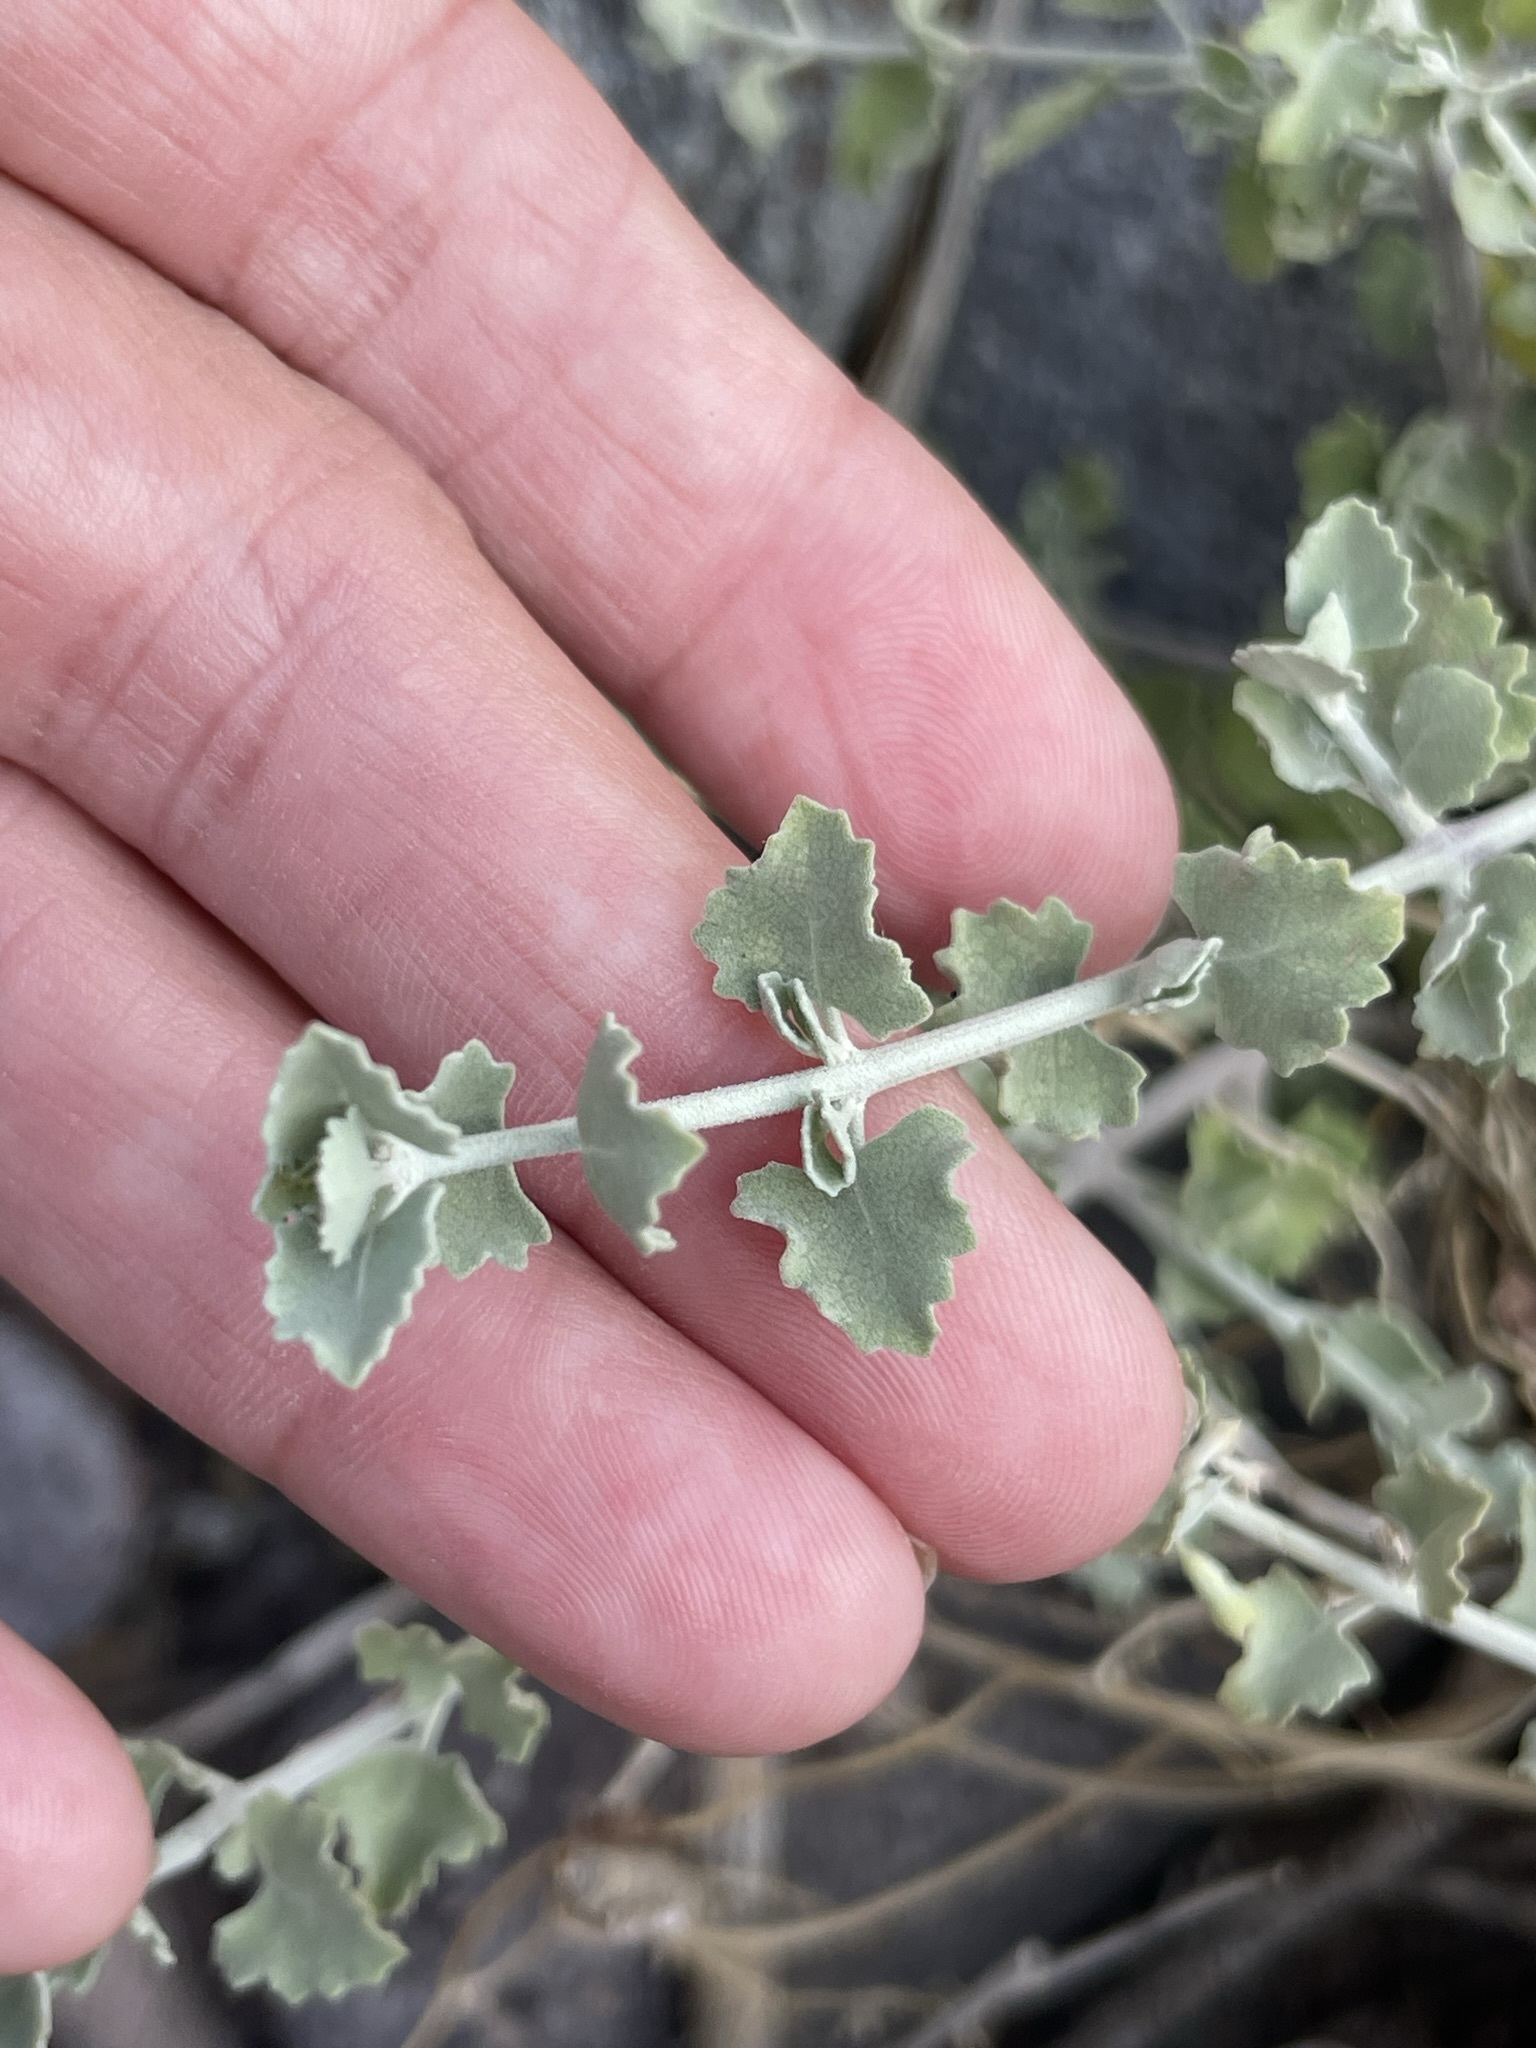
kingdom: Plantae
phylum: Tracheophyta
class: Magnoliopsida
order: Lamiales
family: Lamiaceae
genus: Condea
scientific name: Condea anitae
